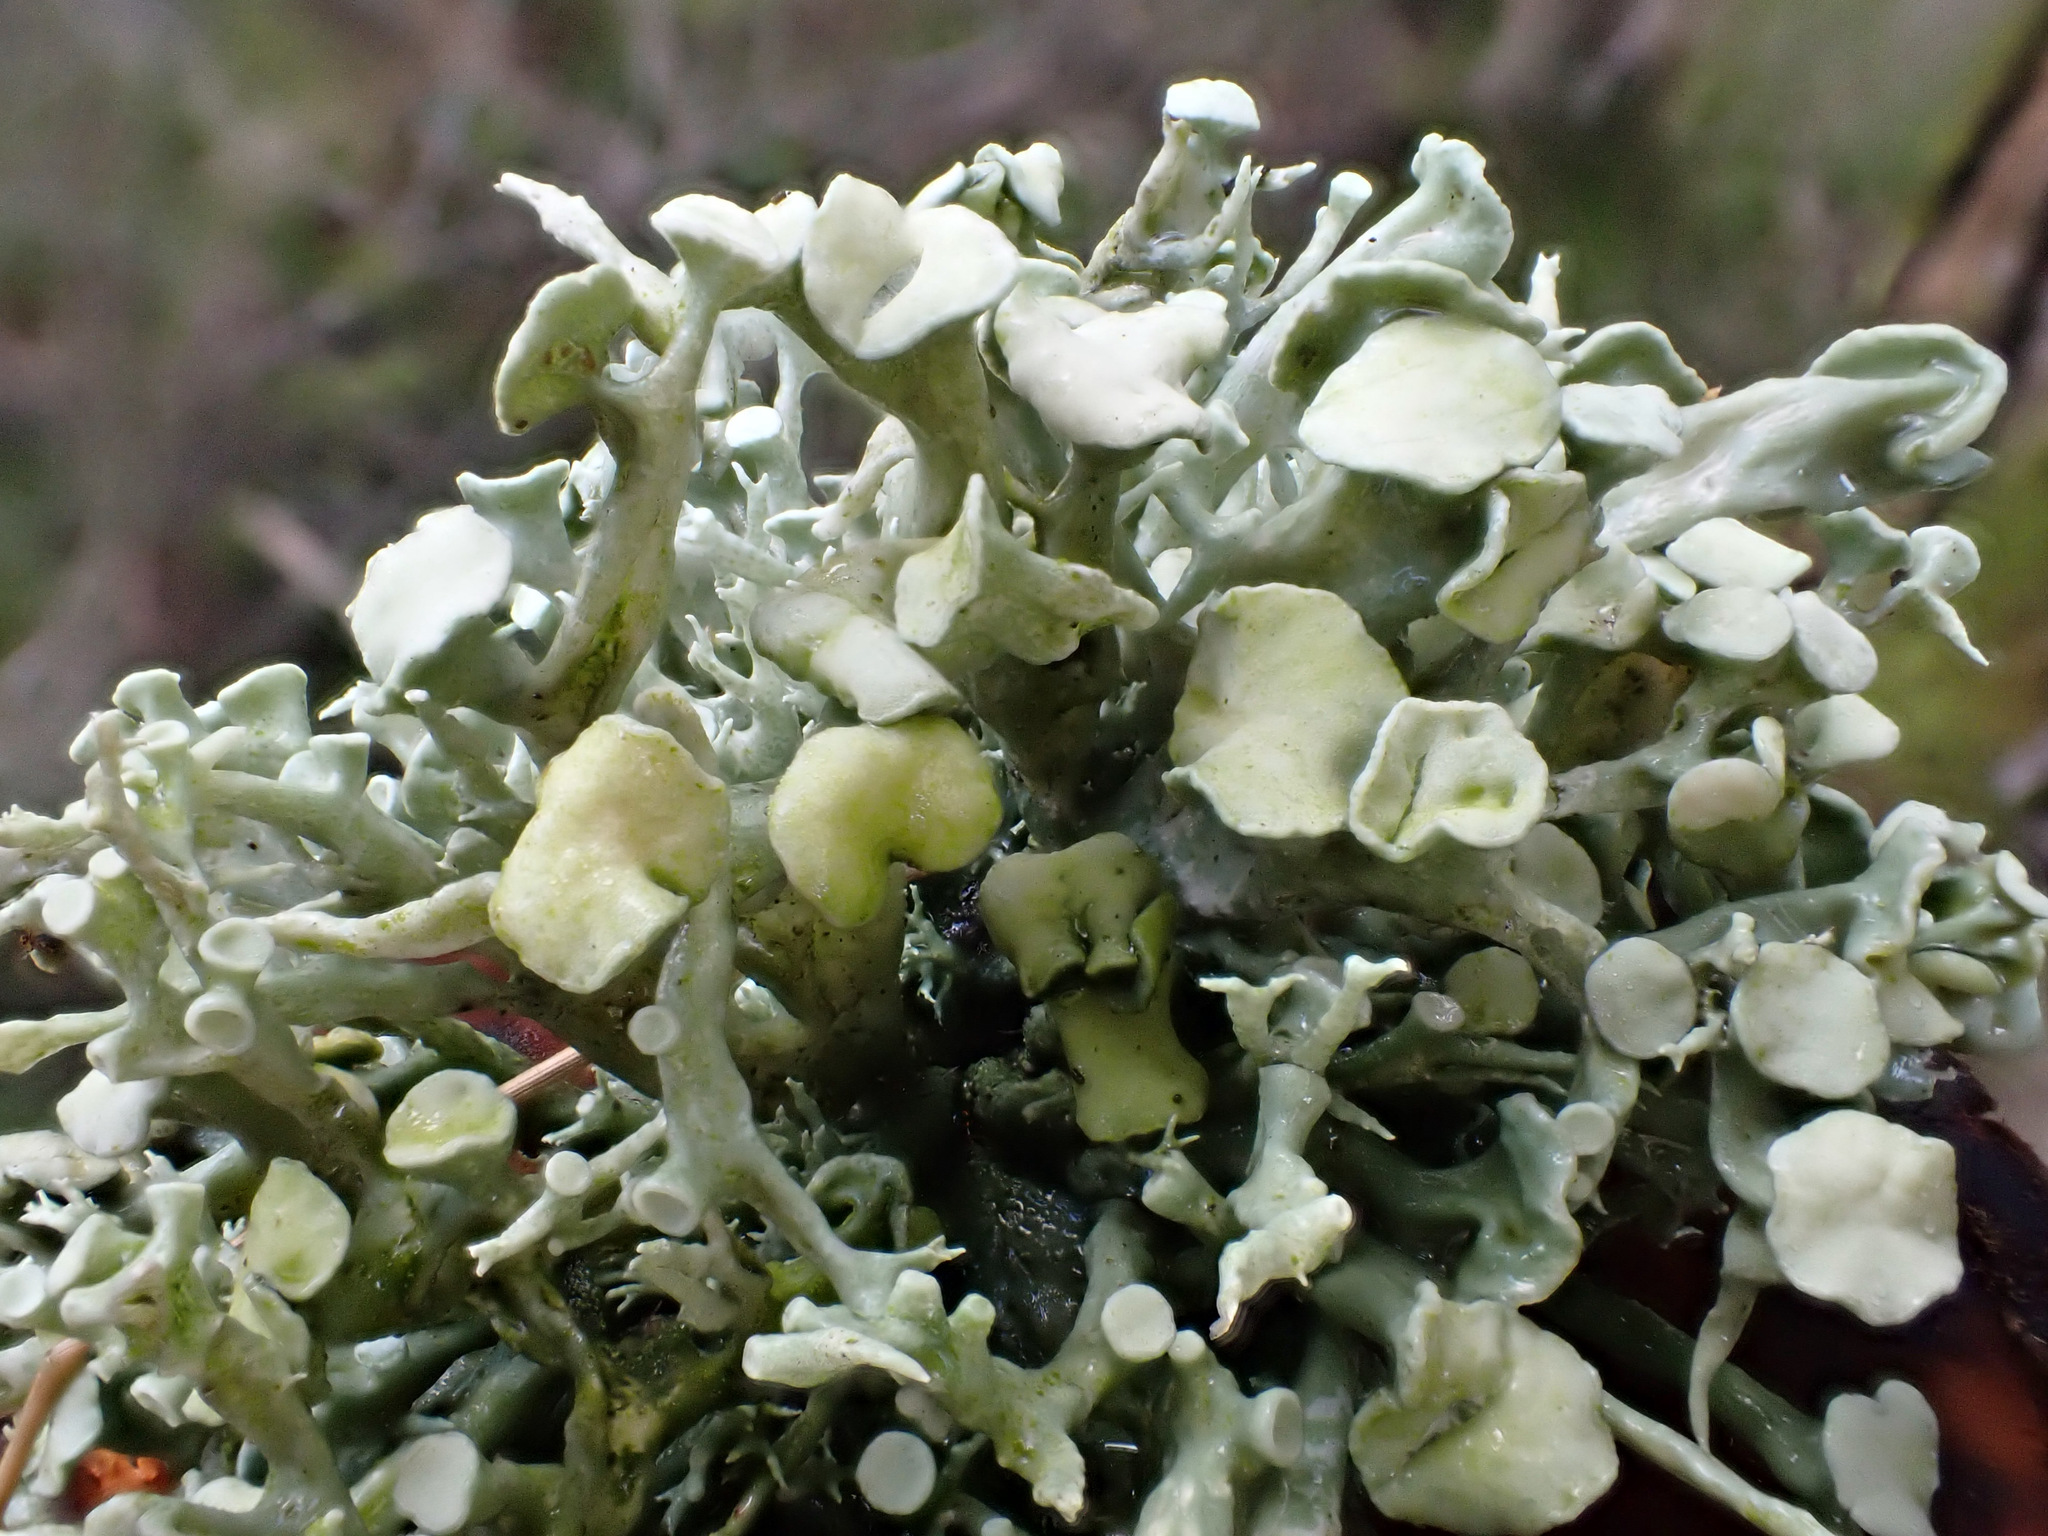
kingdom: Fungi
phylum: Ascomycota
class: Lecanoromycetes
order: Lecanorales
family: Ramalinaceae
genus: Ramalina
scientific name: Ramalina fastigiata
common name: Dotted ribbon lichen
